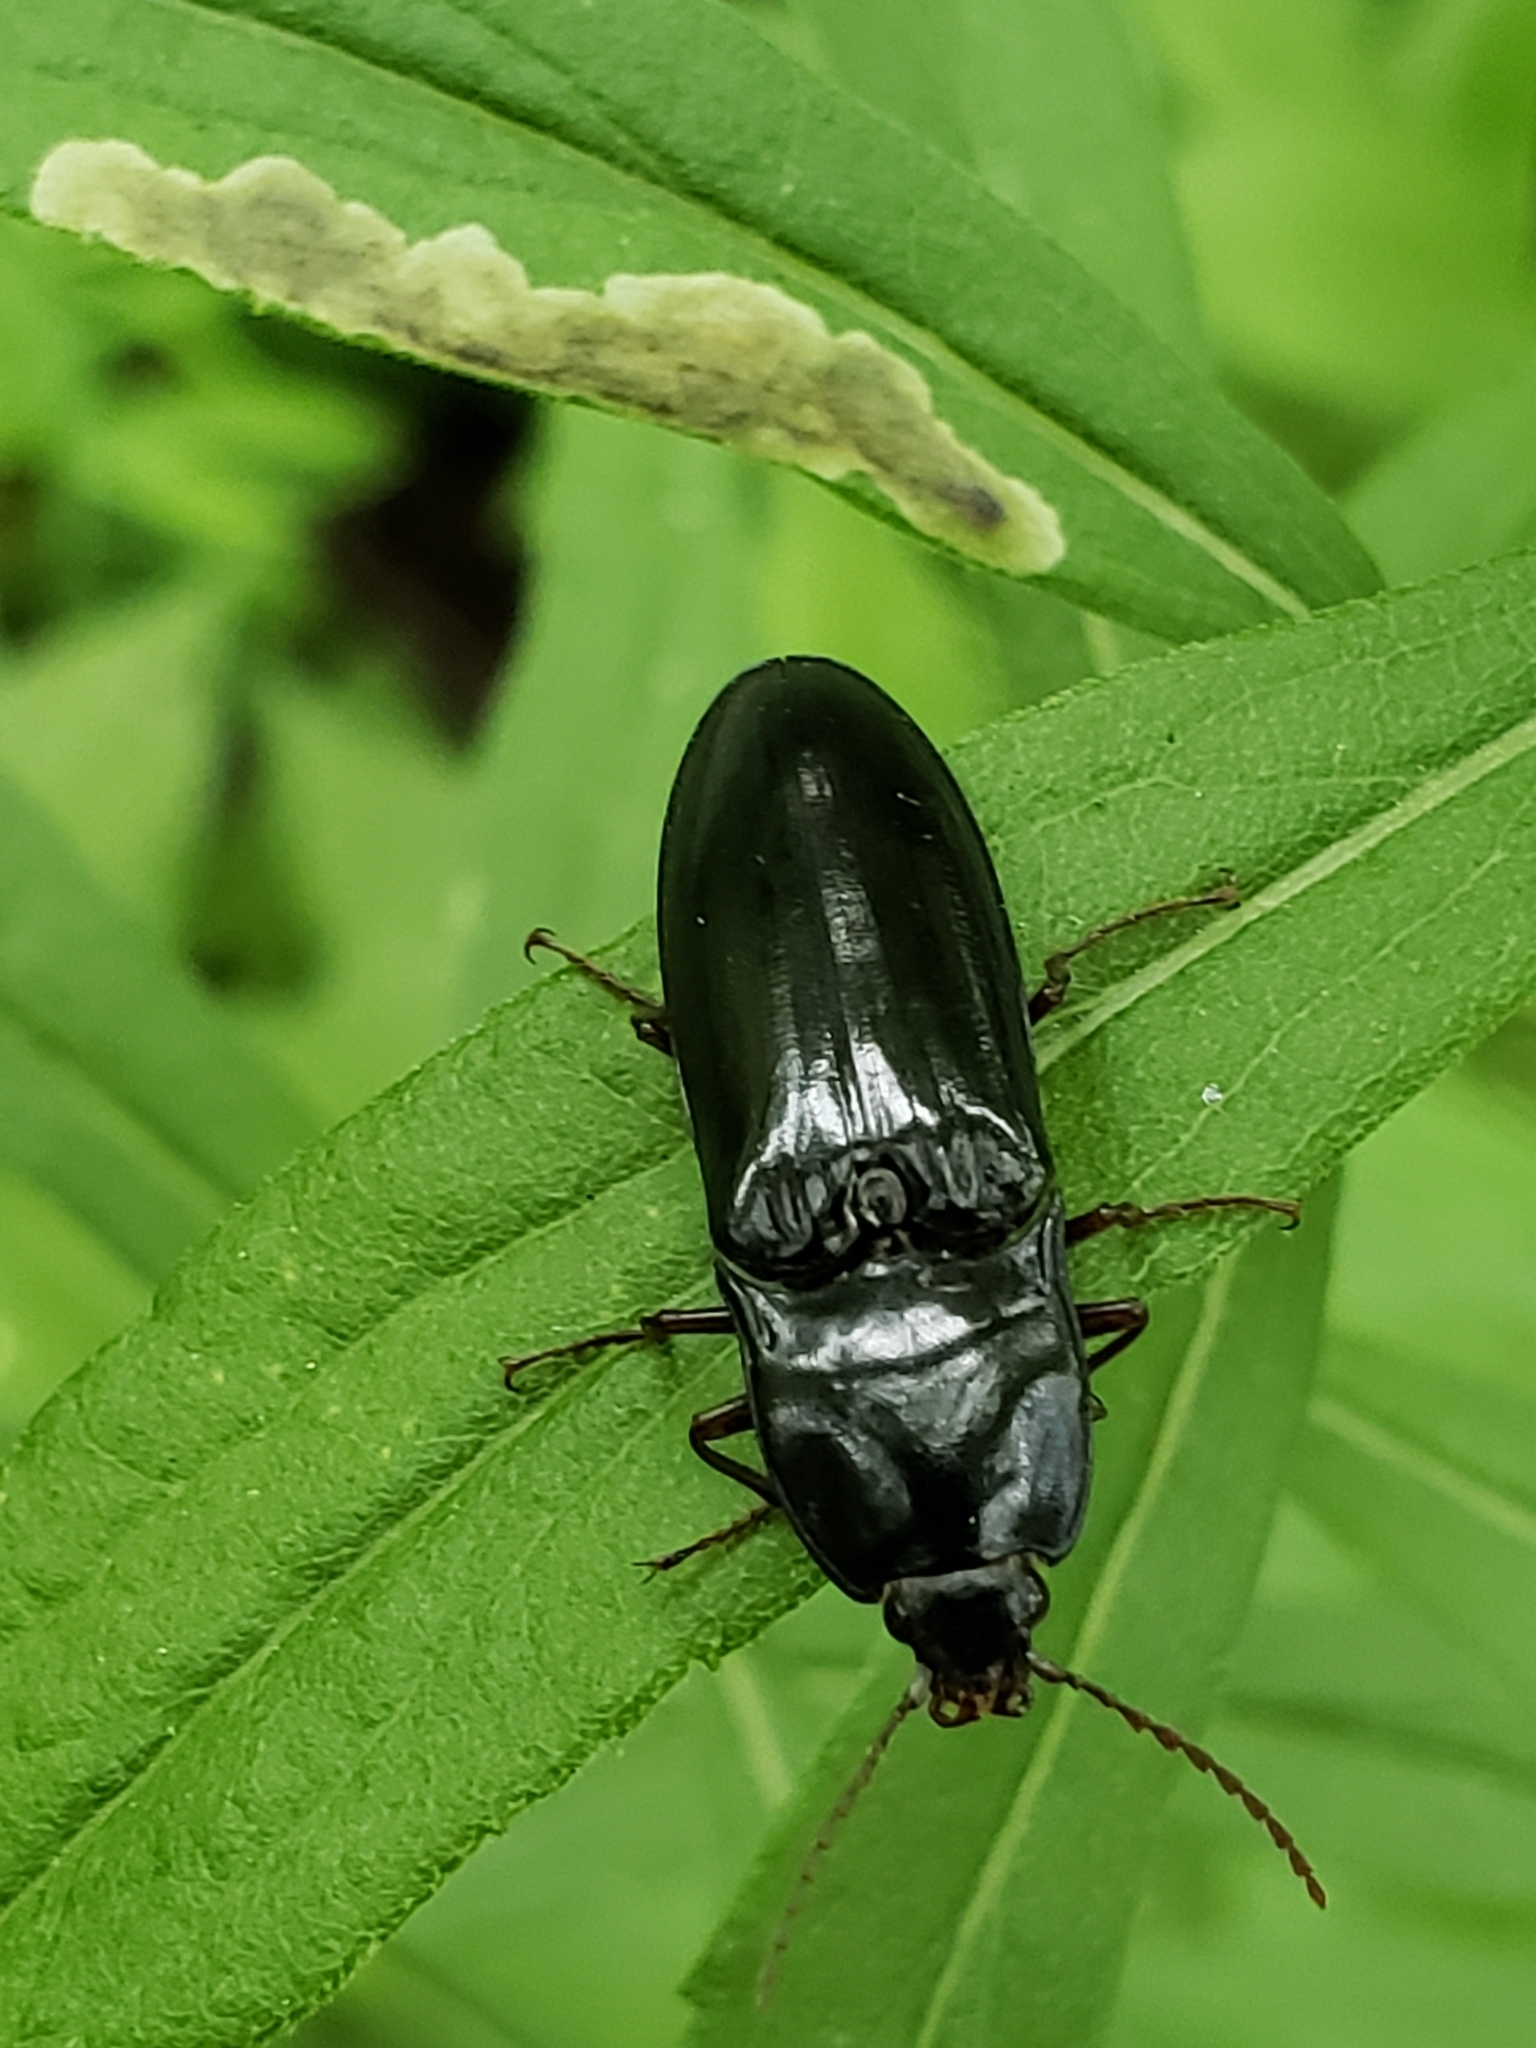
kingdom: Animalia
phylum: Arthropoda
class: Insecta
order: Coleoptera
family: Elateridae
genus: Melanactes
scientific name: Melanactes piceus
